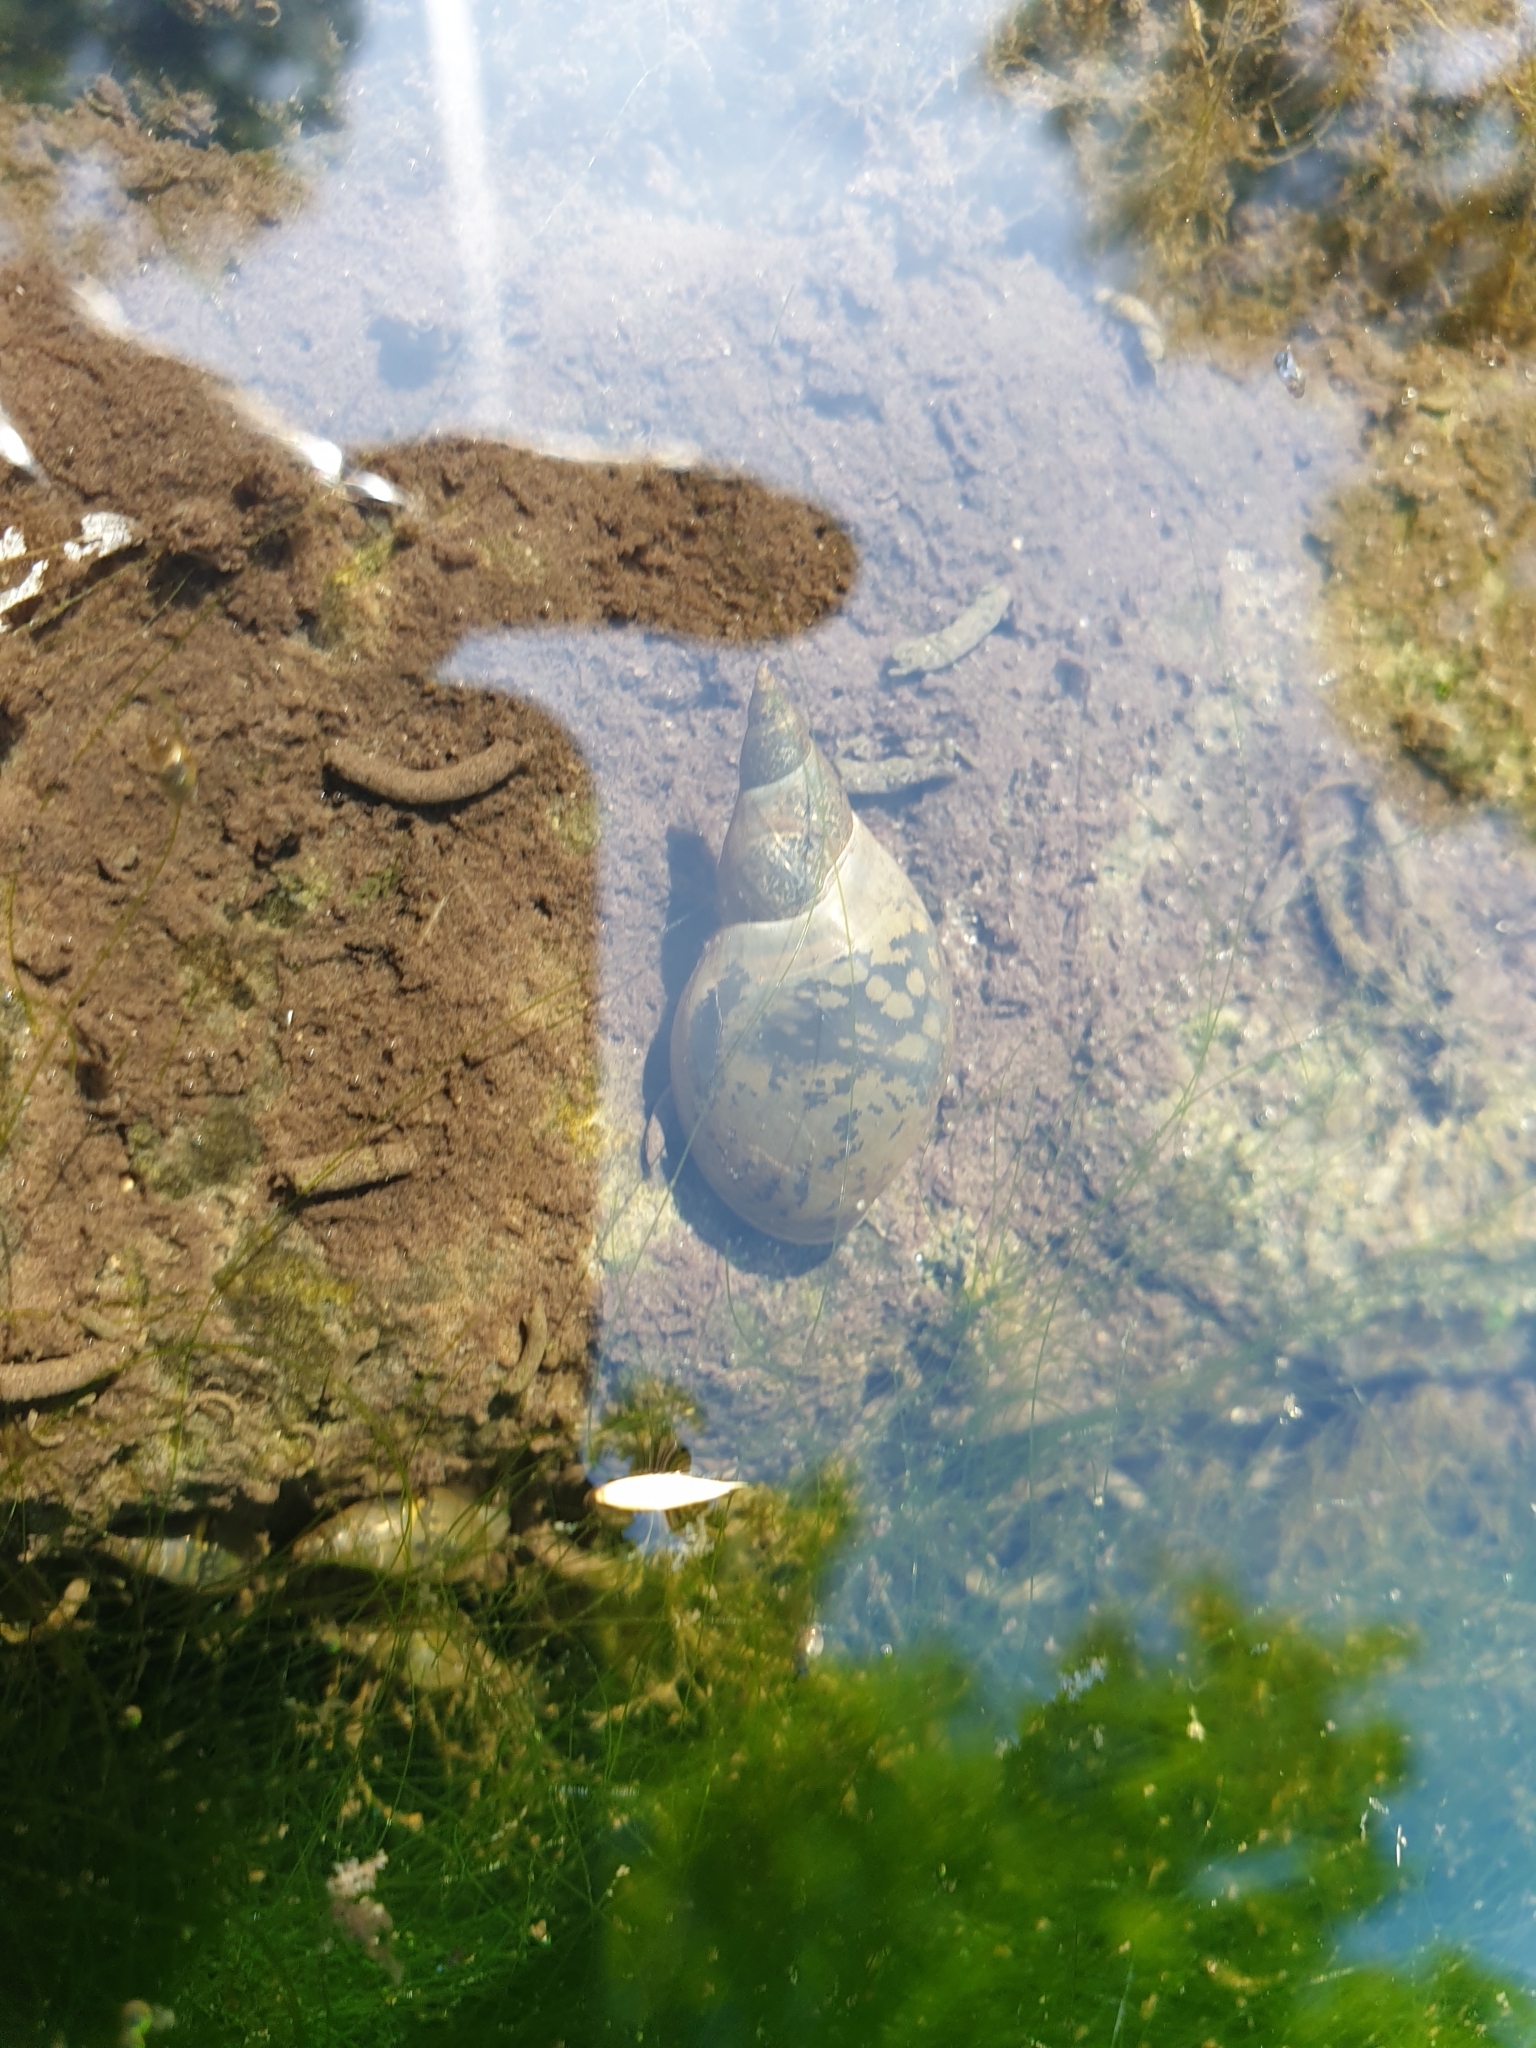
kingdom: Animalia
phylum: Mollusca
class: Gastropoda
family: Lymnaeidae
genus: Lymnaea
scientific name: Lymnaea stagnalis
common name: Great pond snail
